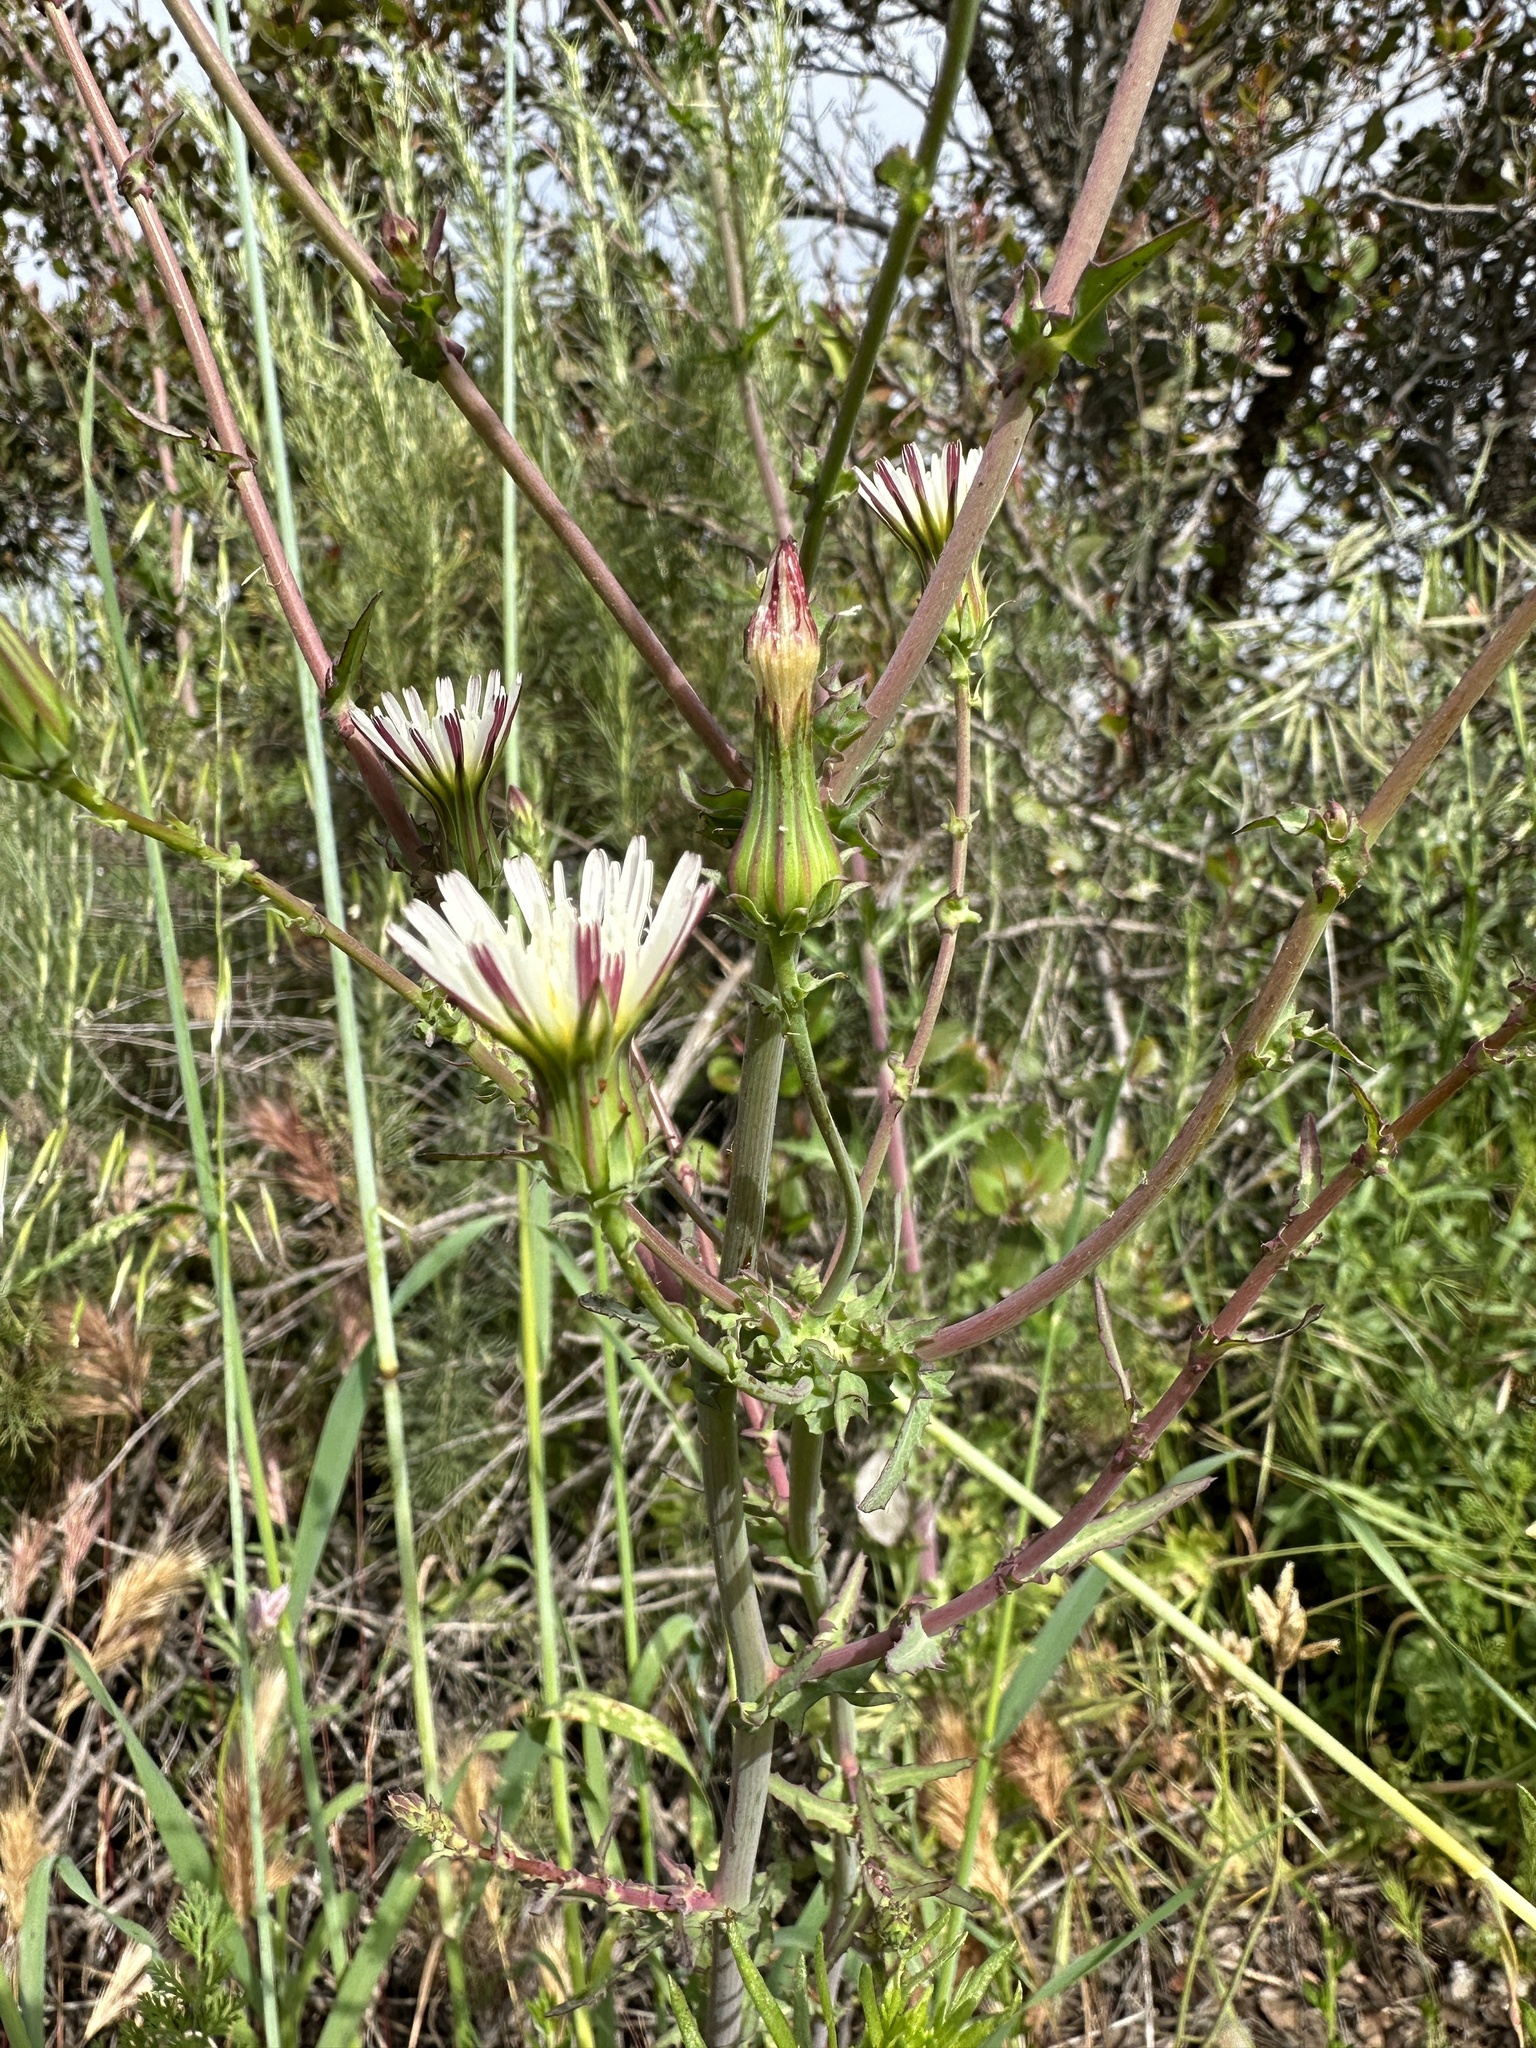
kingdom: Plantae
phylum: Tracheophyta
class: Magnoliopsida
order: Asterales
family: Asteraceae
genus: Rafinesquia
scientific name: Rafinesquia californica
